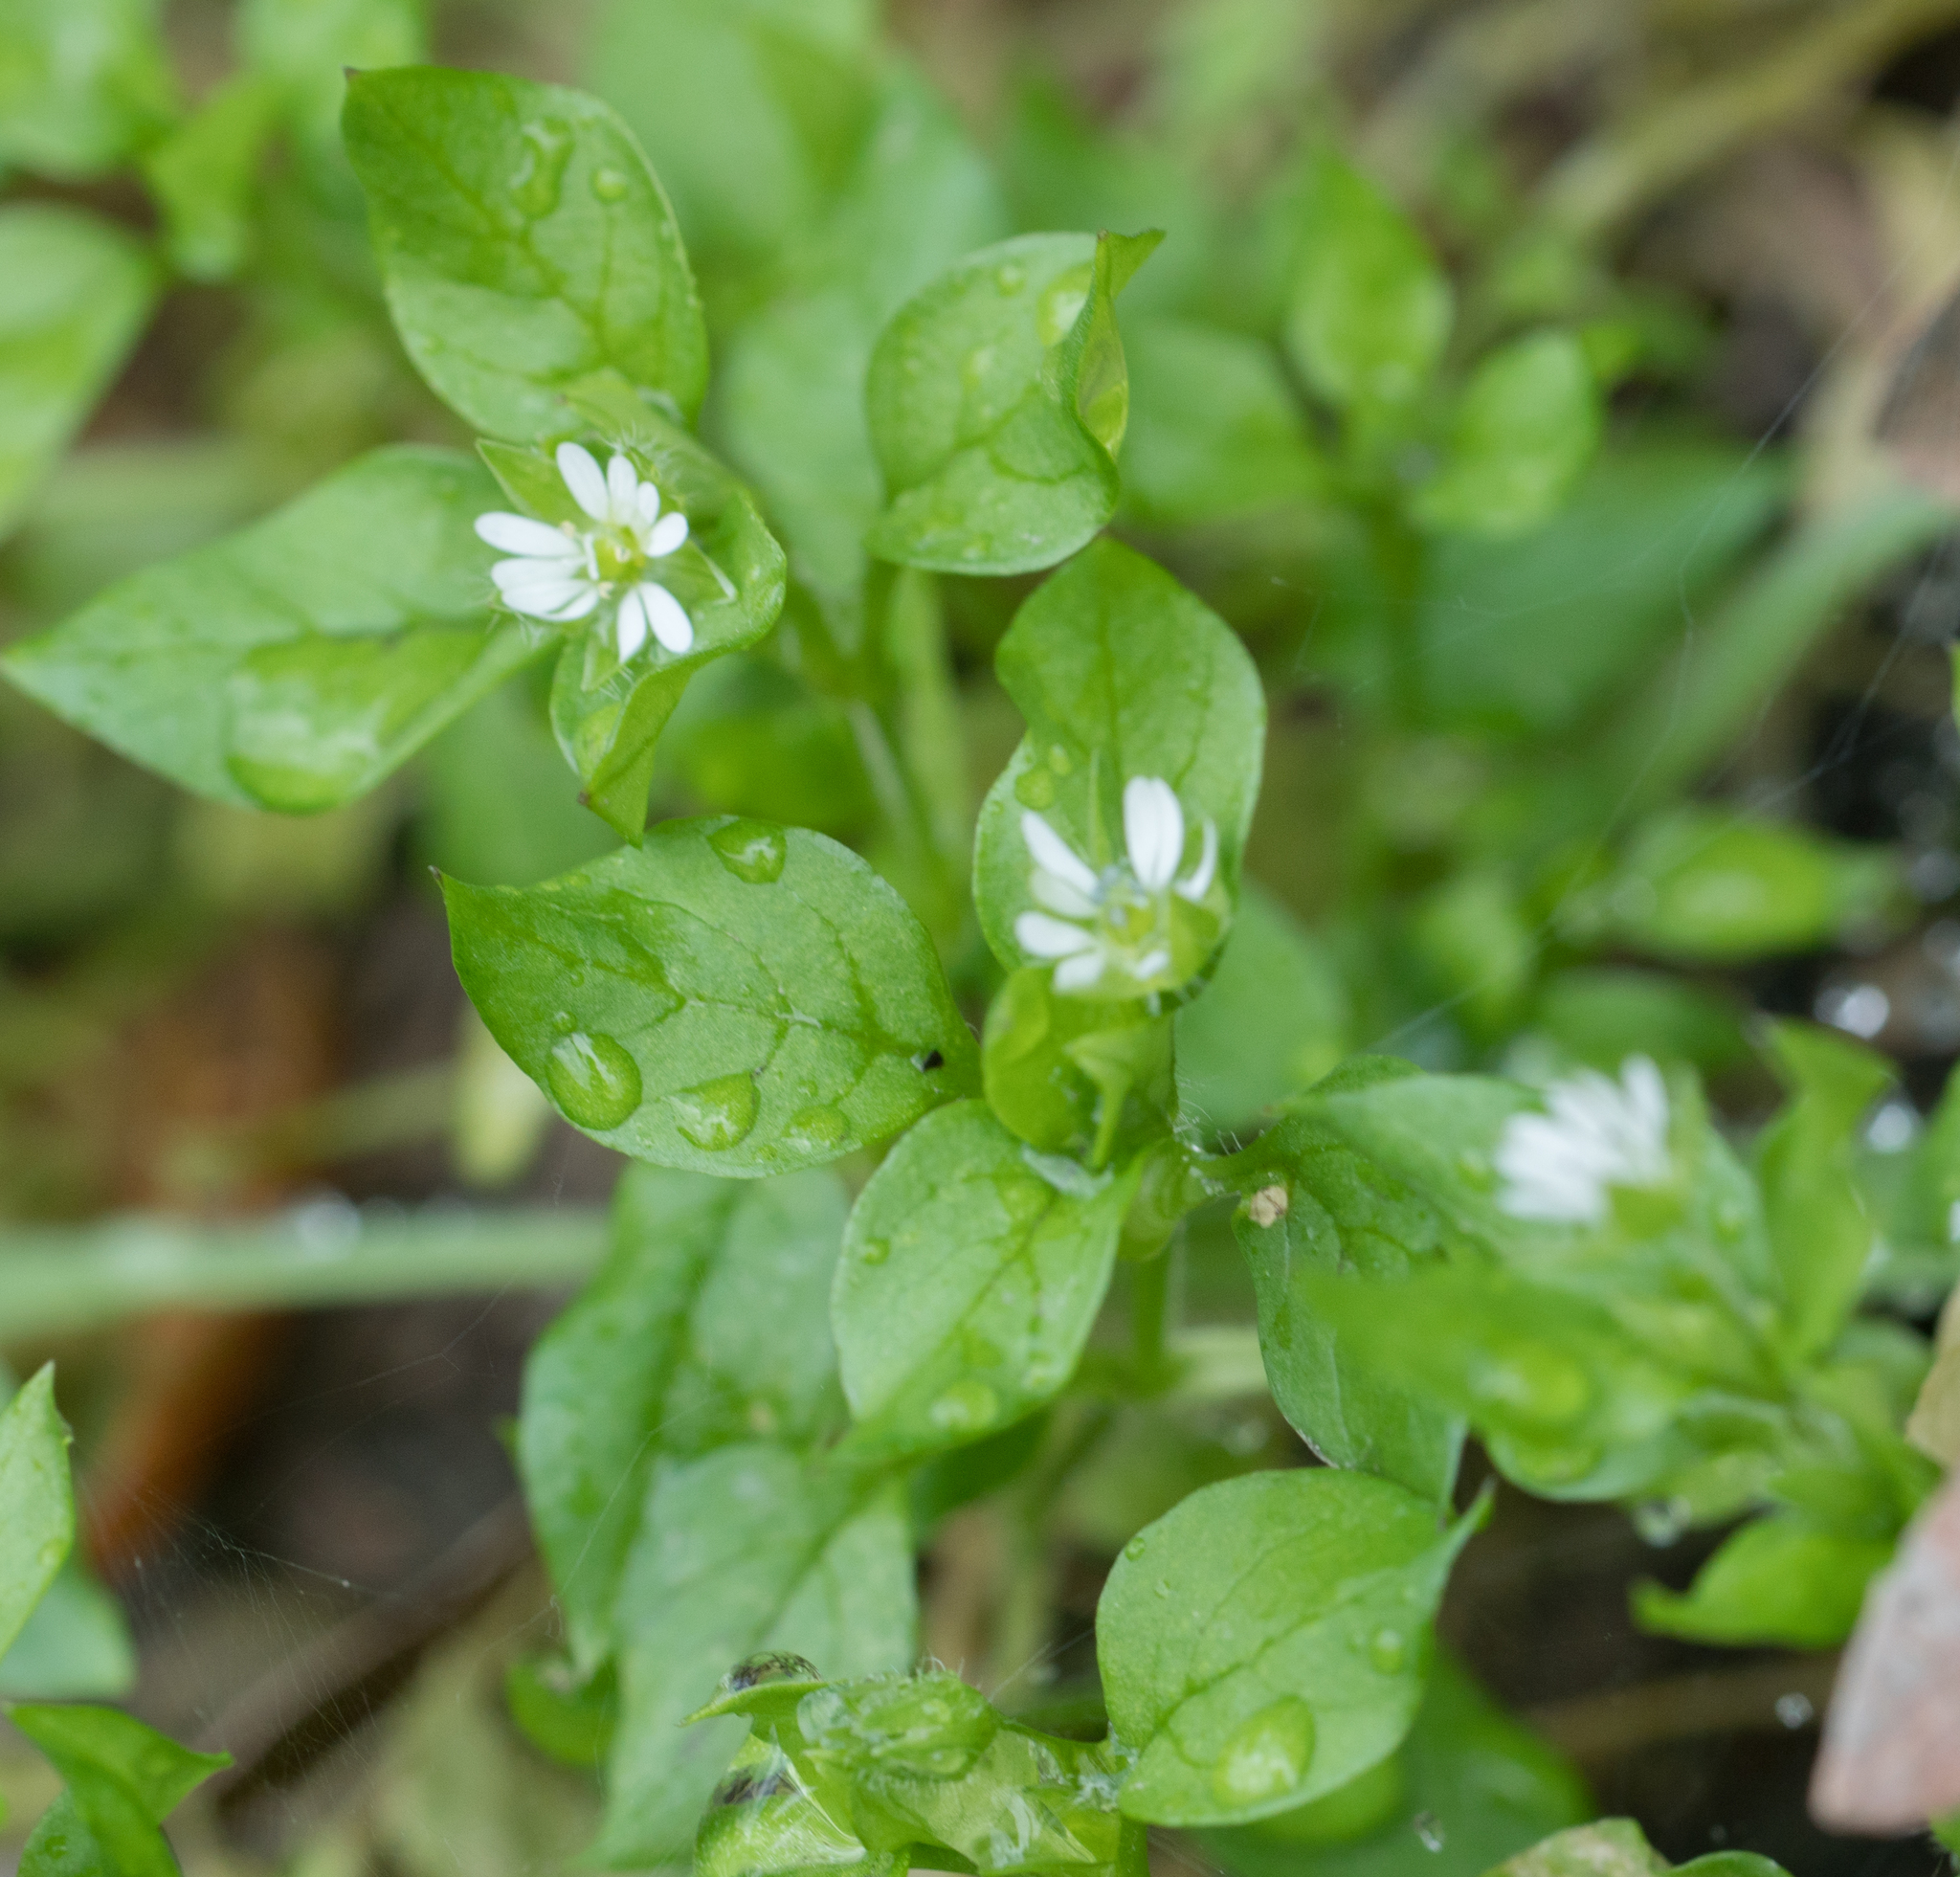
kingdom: Plantae
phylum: Tracheophyta
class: Magnoliopsida
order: Caryophyllales
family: Caryophyllaceae
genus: Stellaria
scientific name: Stellaria media
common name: Common chickweed
